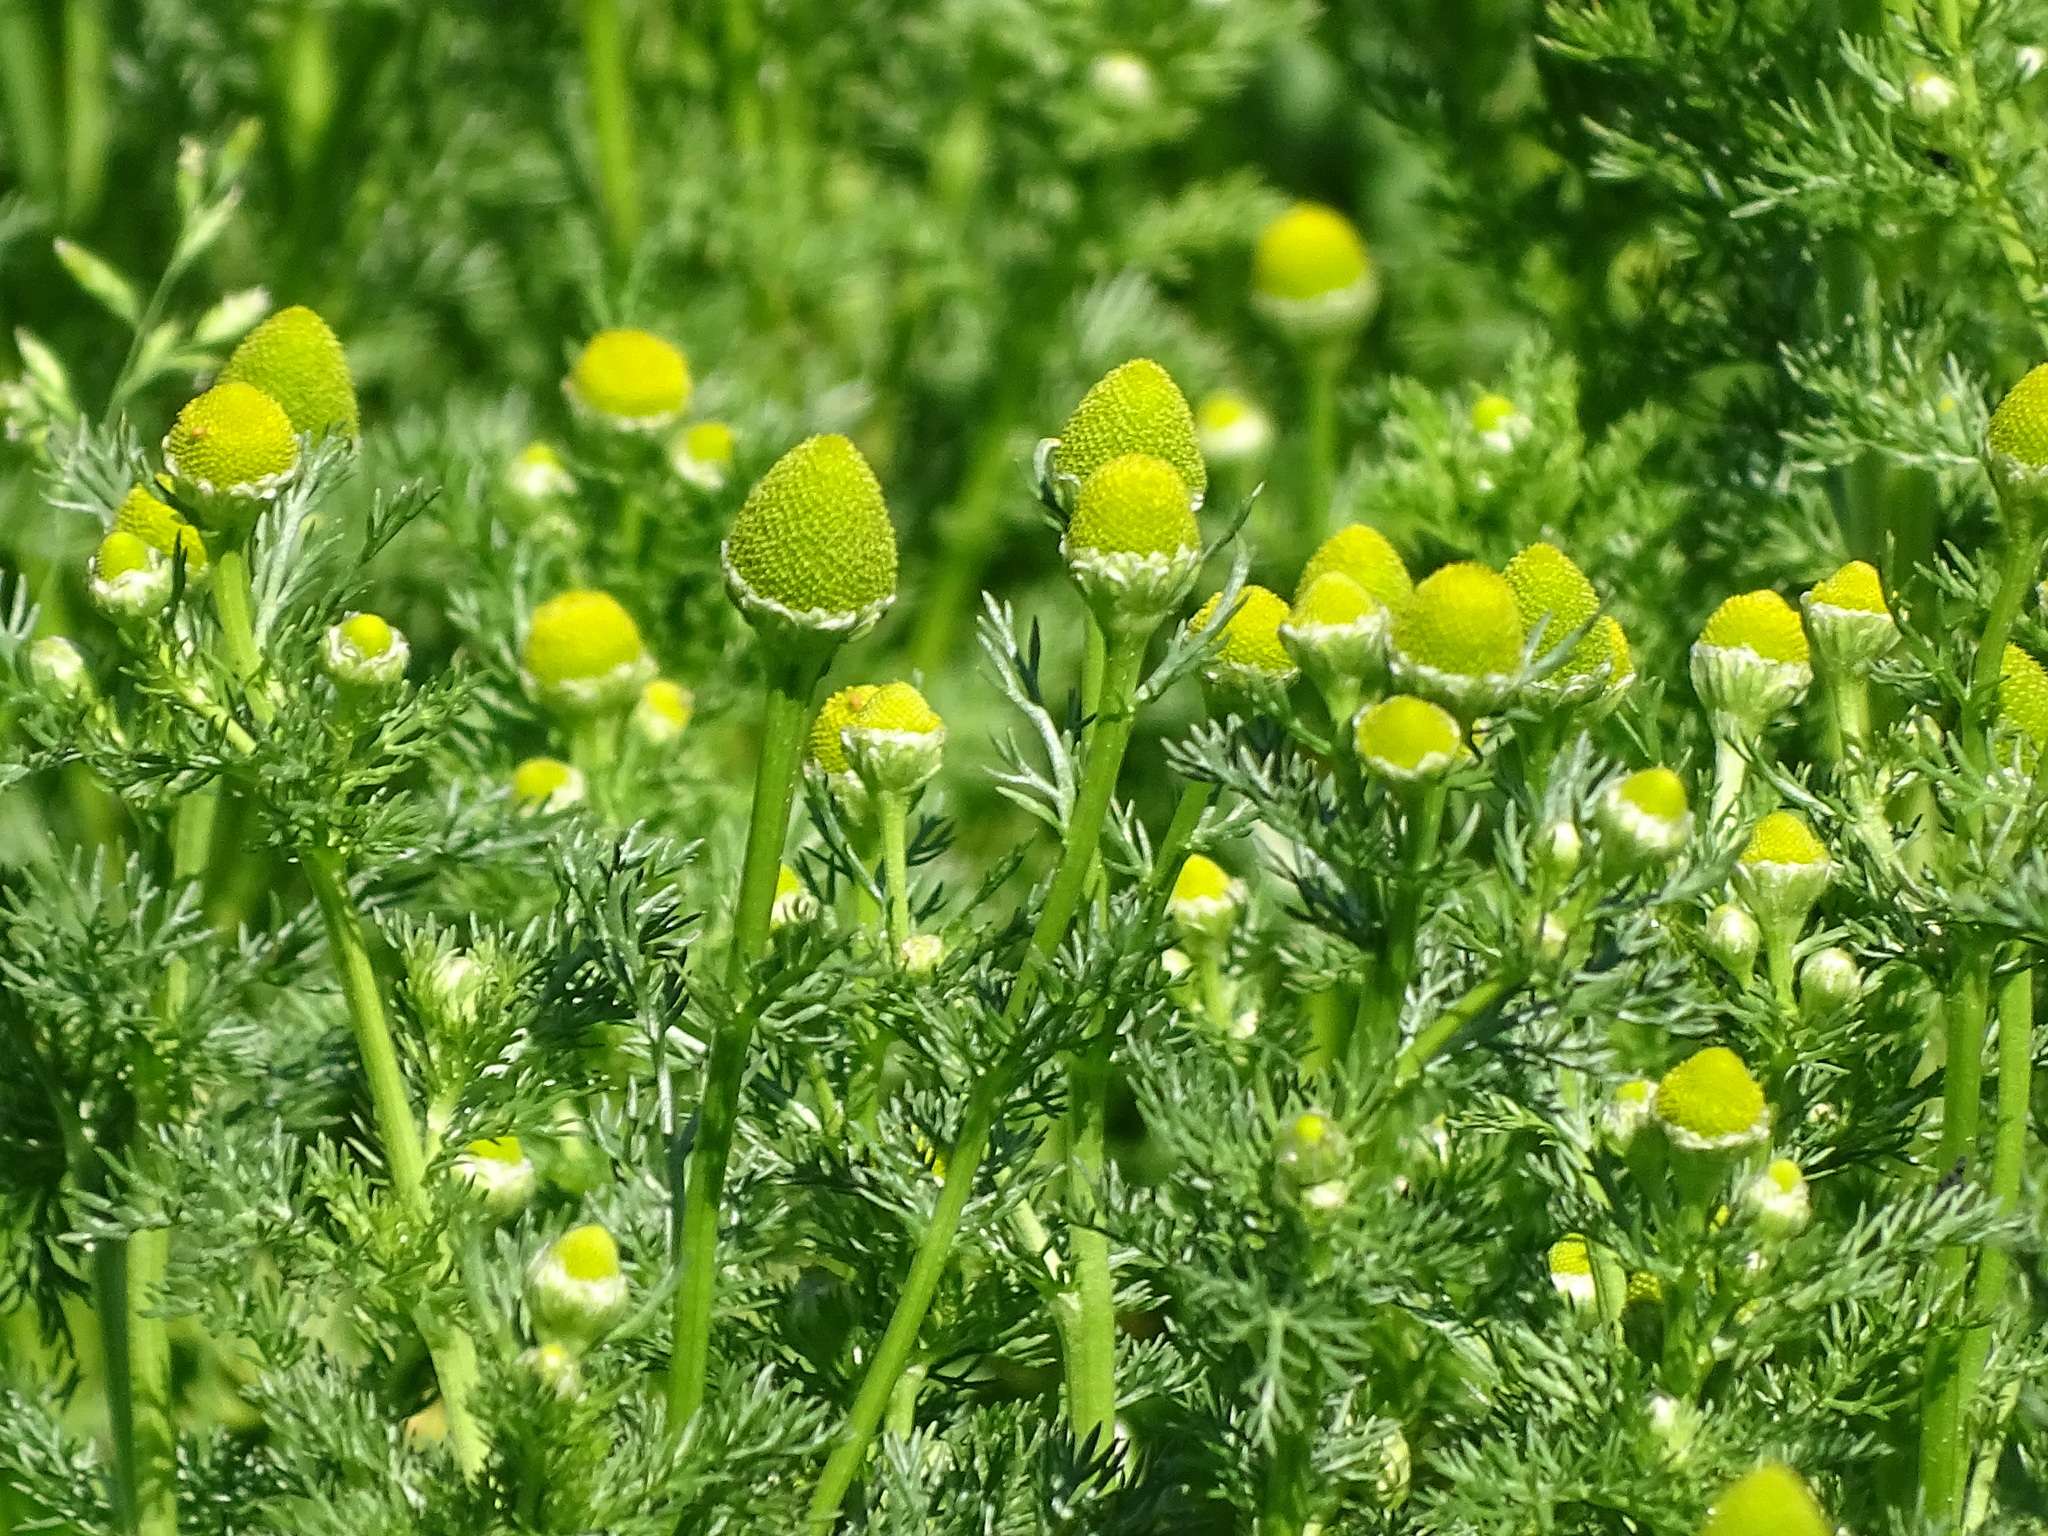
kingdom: Plantae
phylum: Tracheophyta
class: Magnoliopsida
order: Asterales
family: Asteraceae
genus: Matricaria
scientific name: Matricaria discoidea
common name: Disc mayweed
